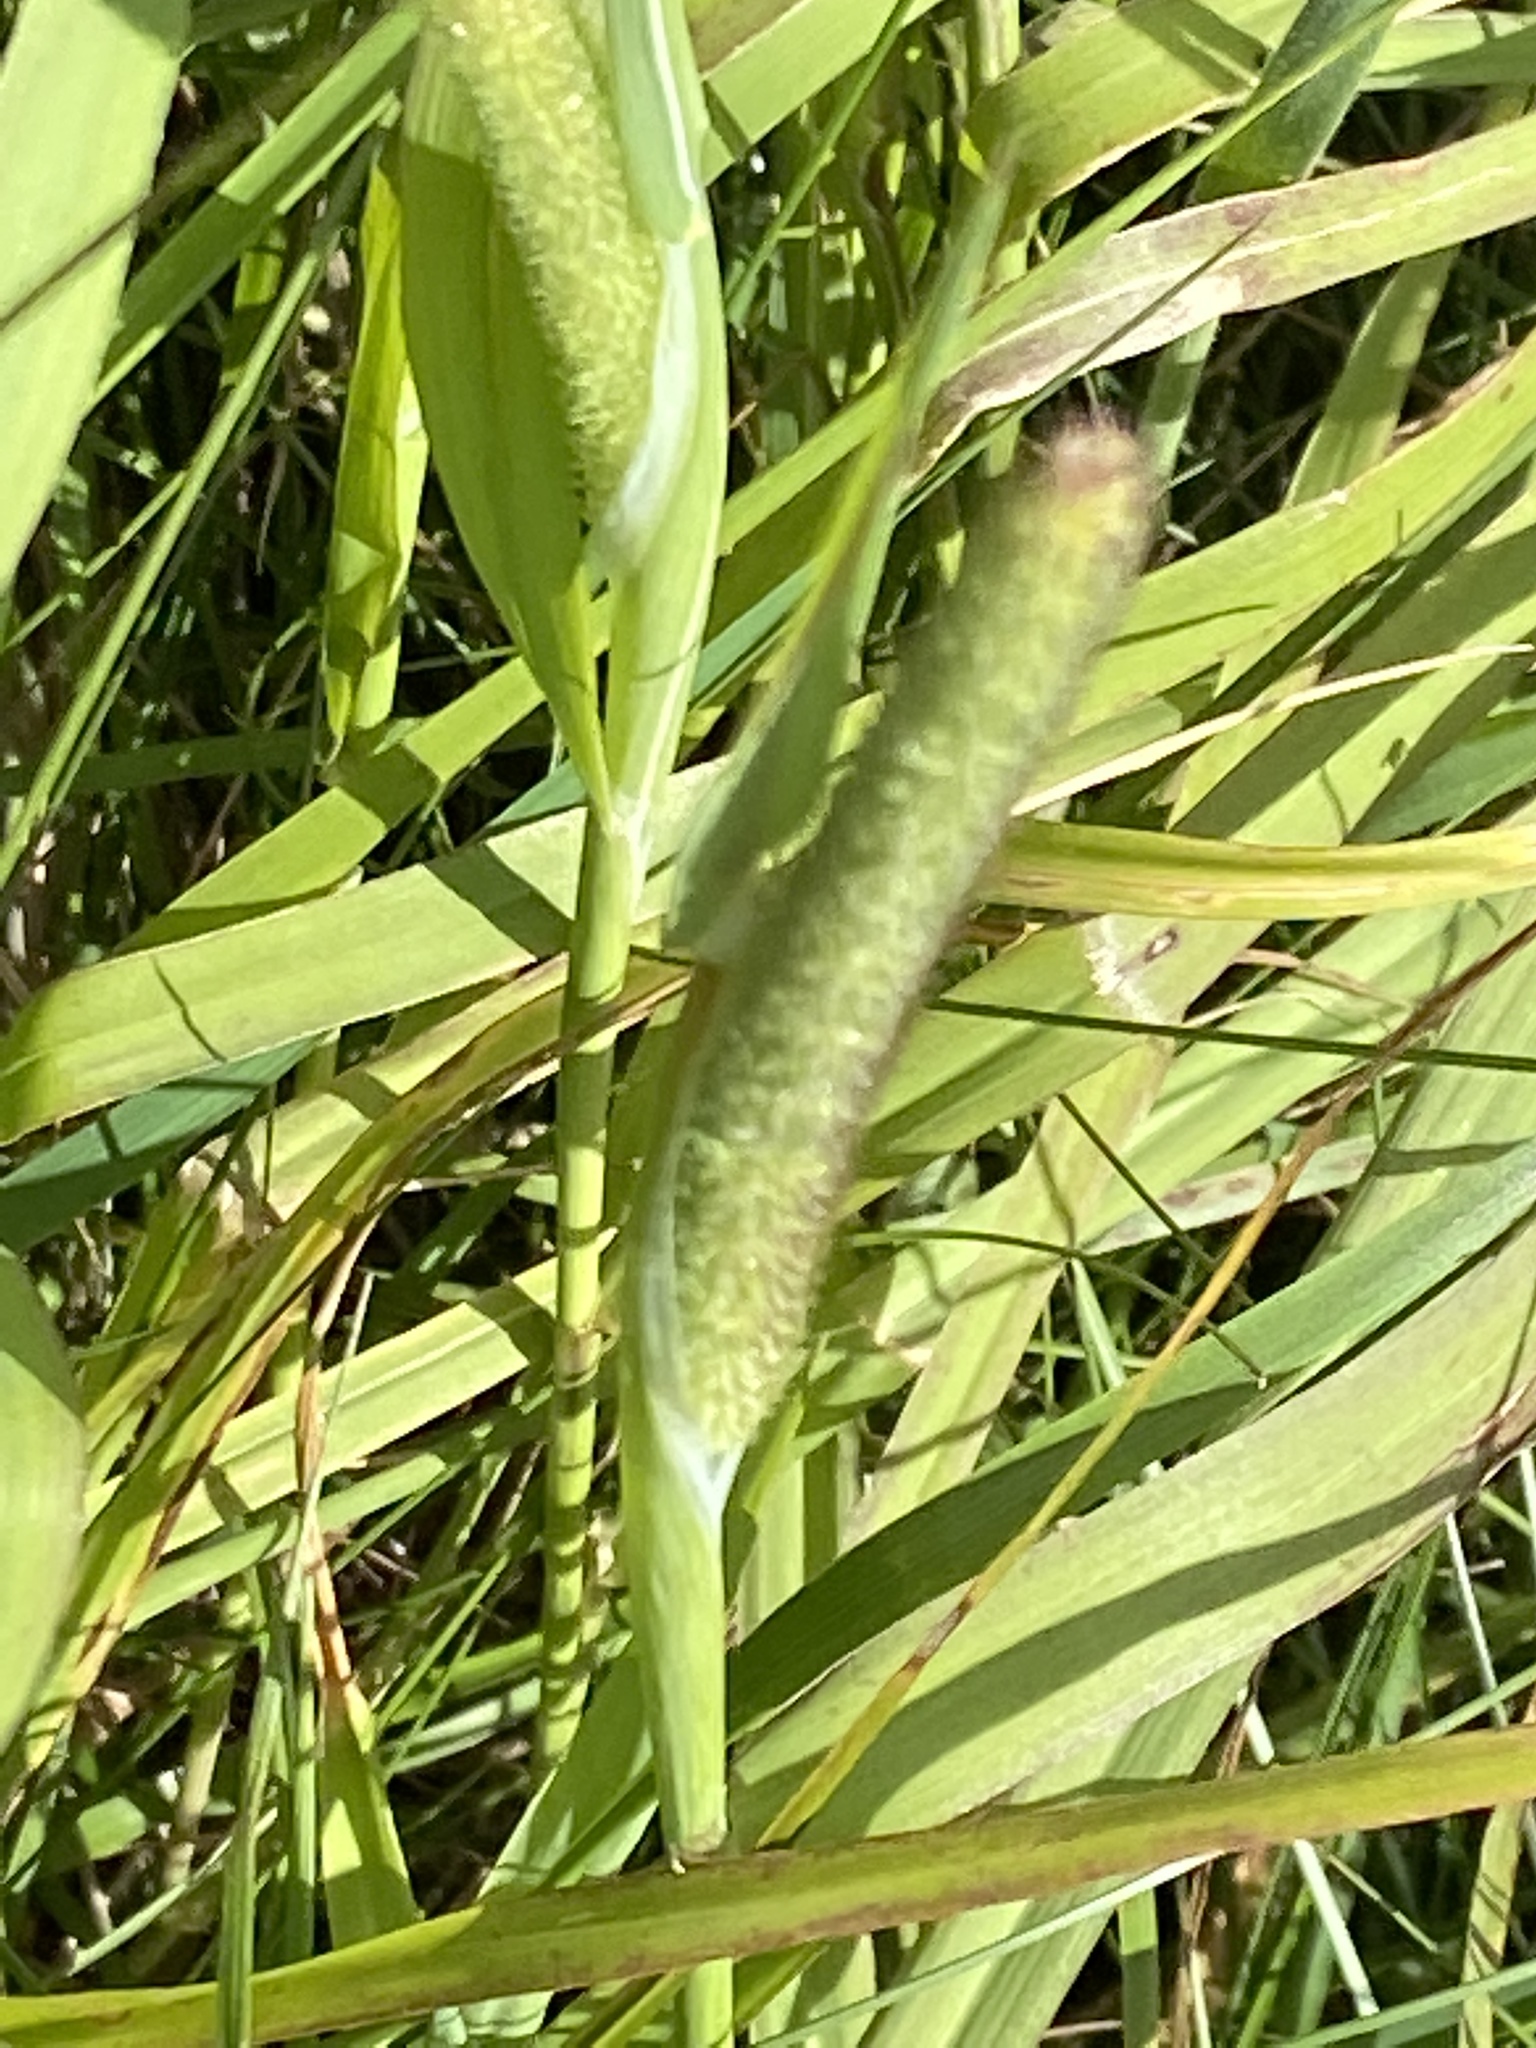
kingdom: Plantae
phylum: Tracheophyta
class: Liliopsida
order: Poales
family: Poaceae
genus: Phleum
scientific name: Phleum pratense
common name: Timothy grass
